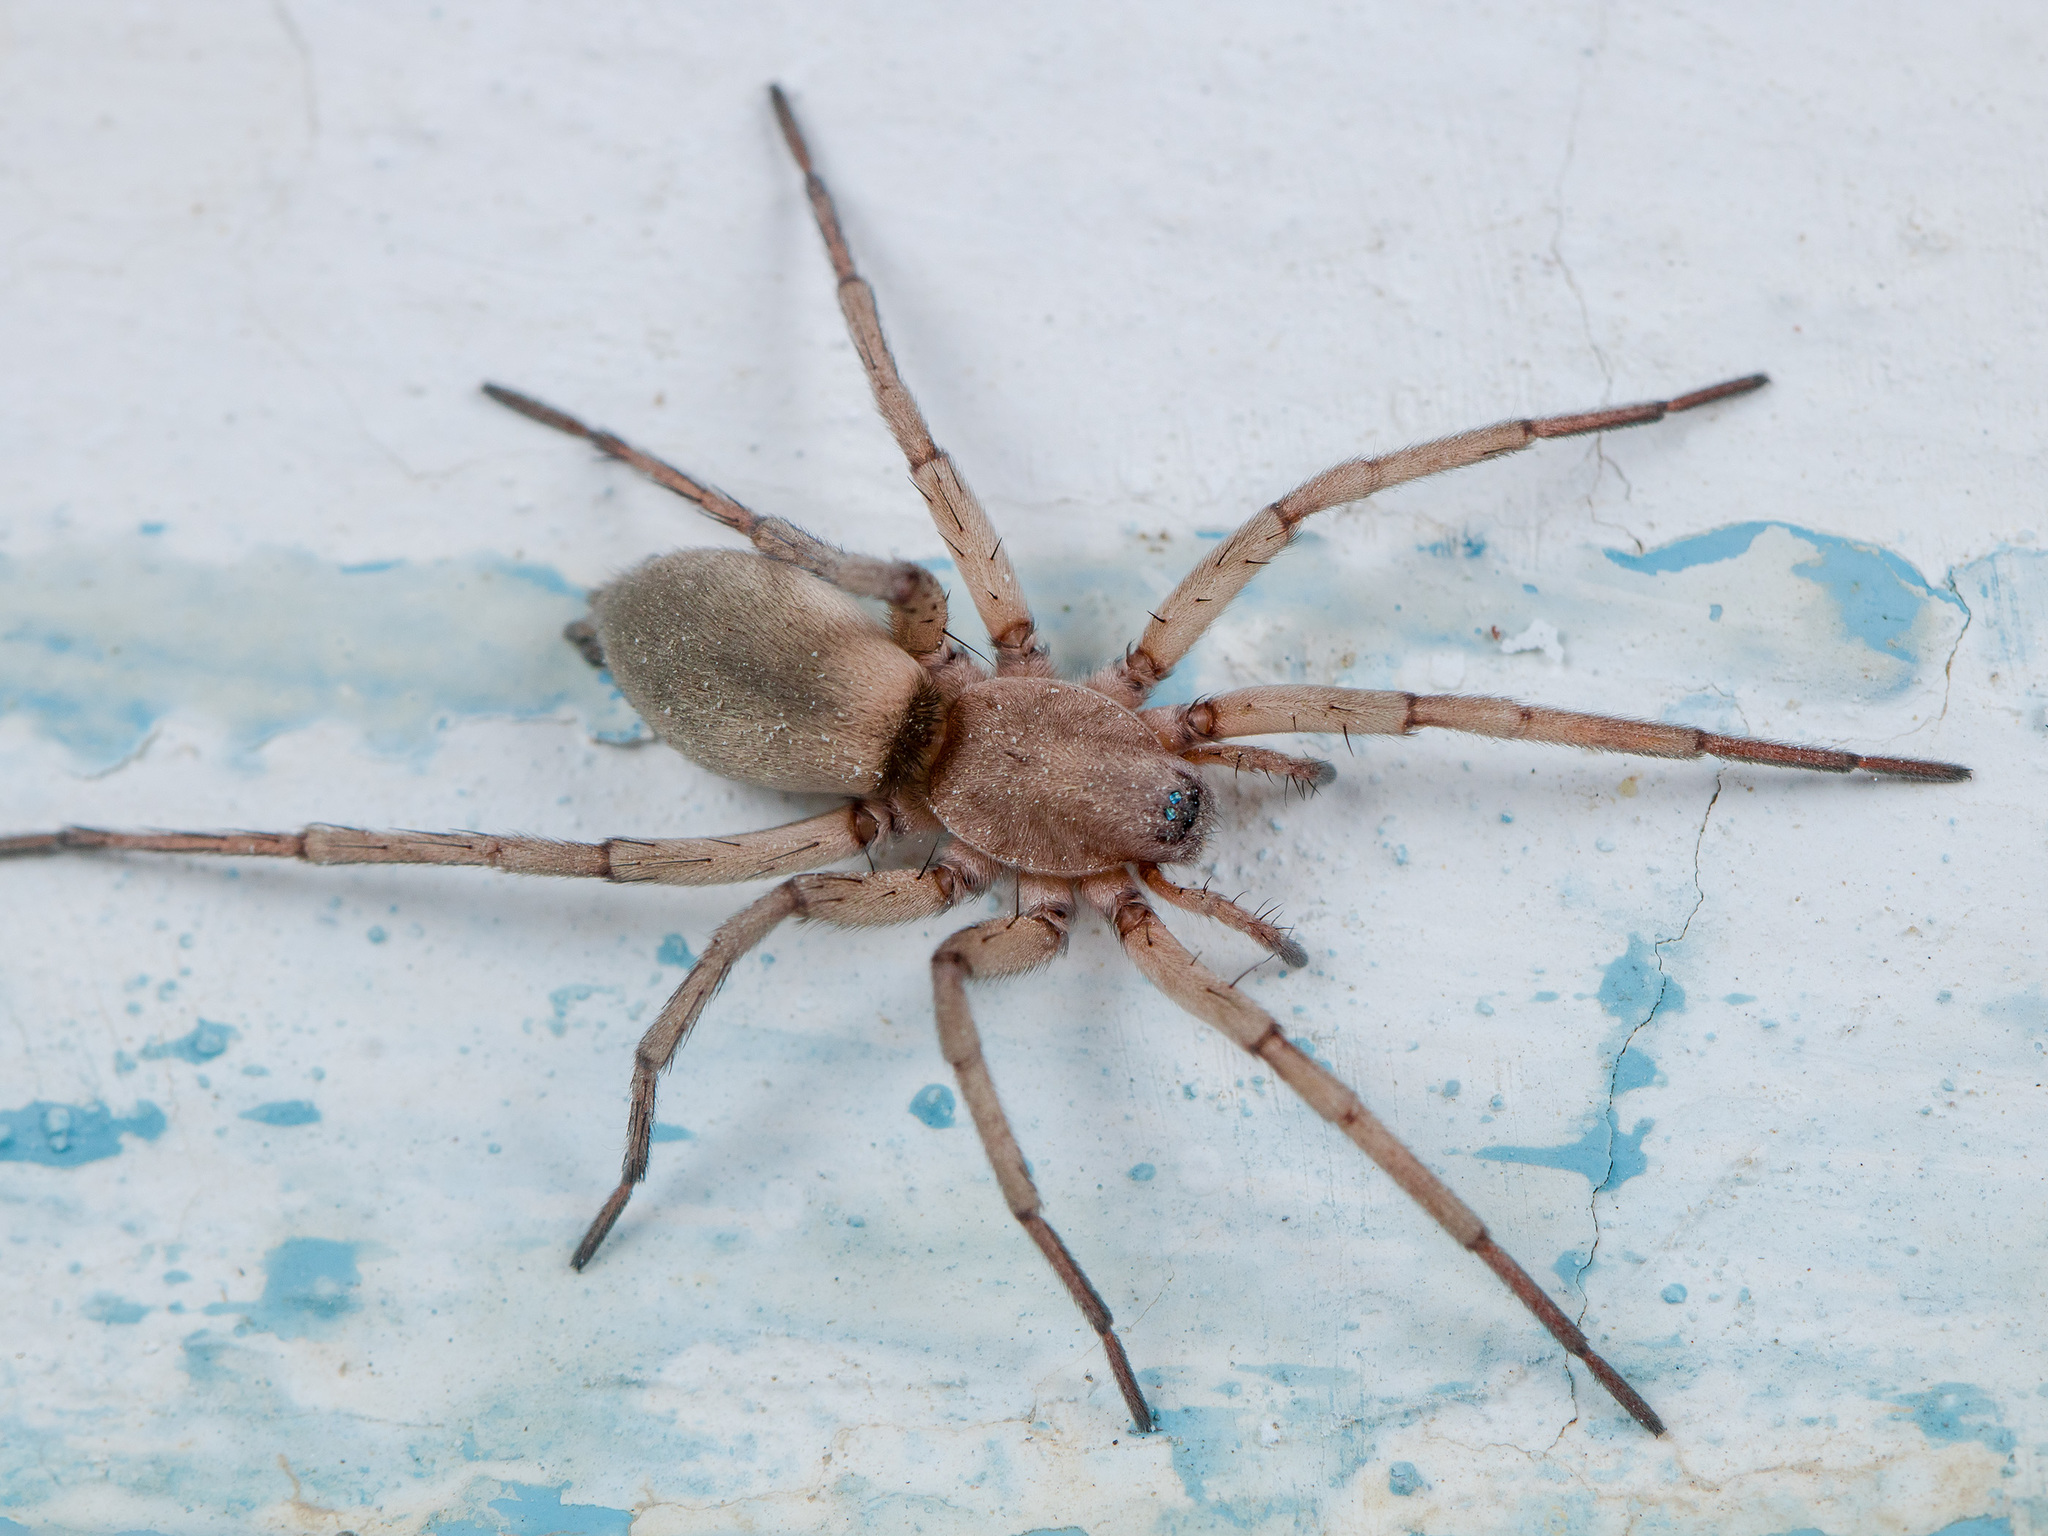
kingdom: Animalia
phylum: Arthropoda
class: Arachnida
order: Araneae
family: Gnaphosidae
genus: Sidydrassus
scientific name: Sidydrassus tianschanicus
